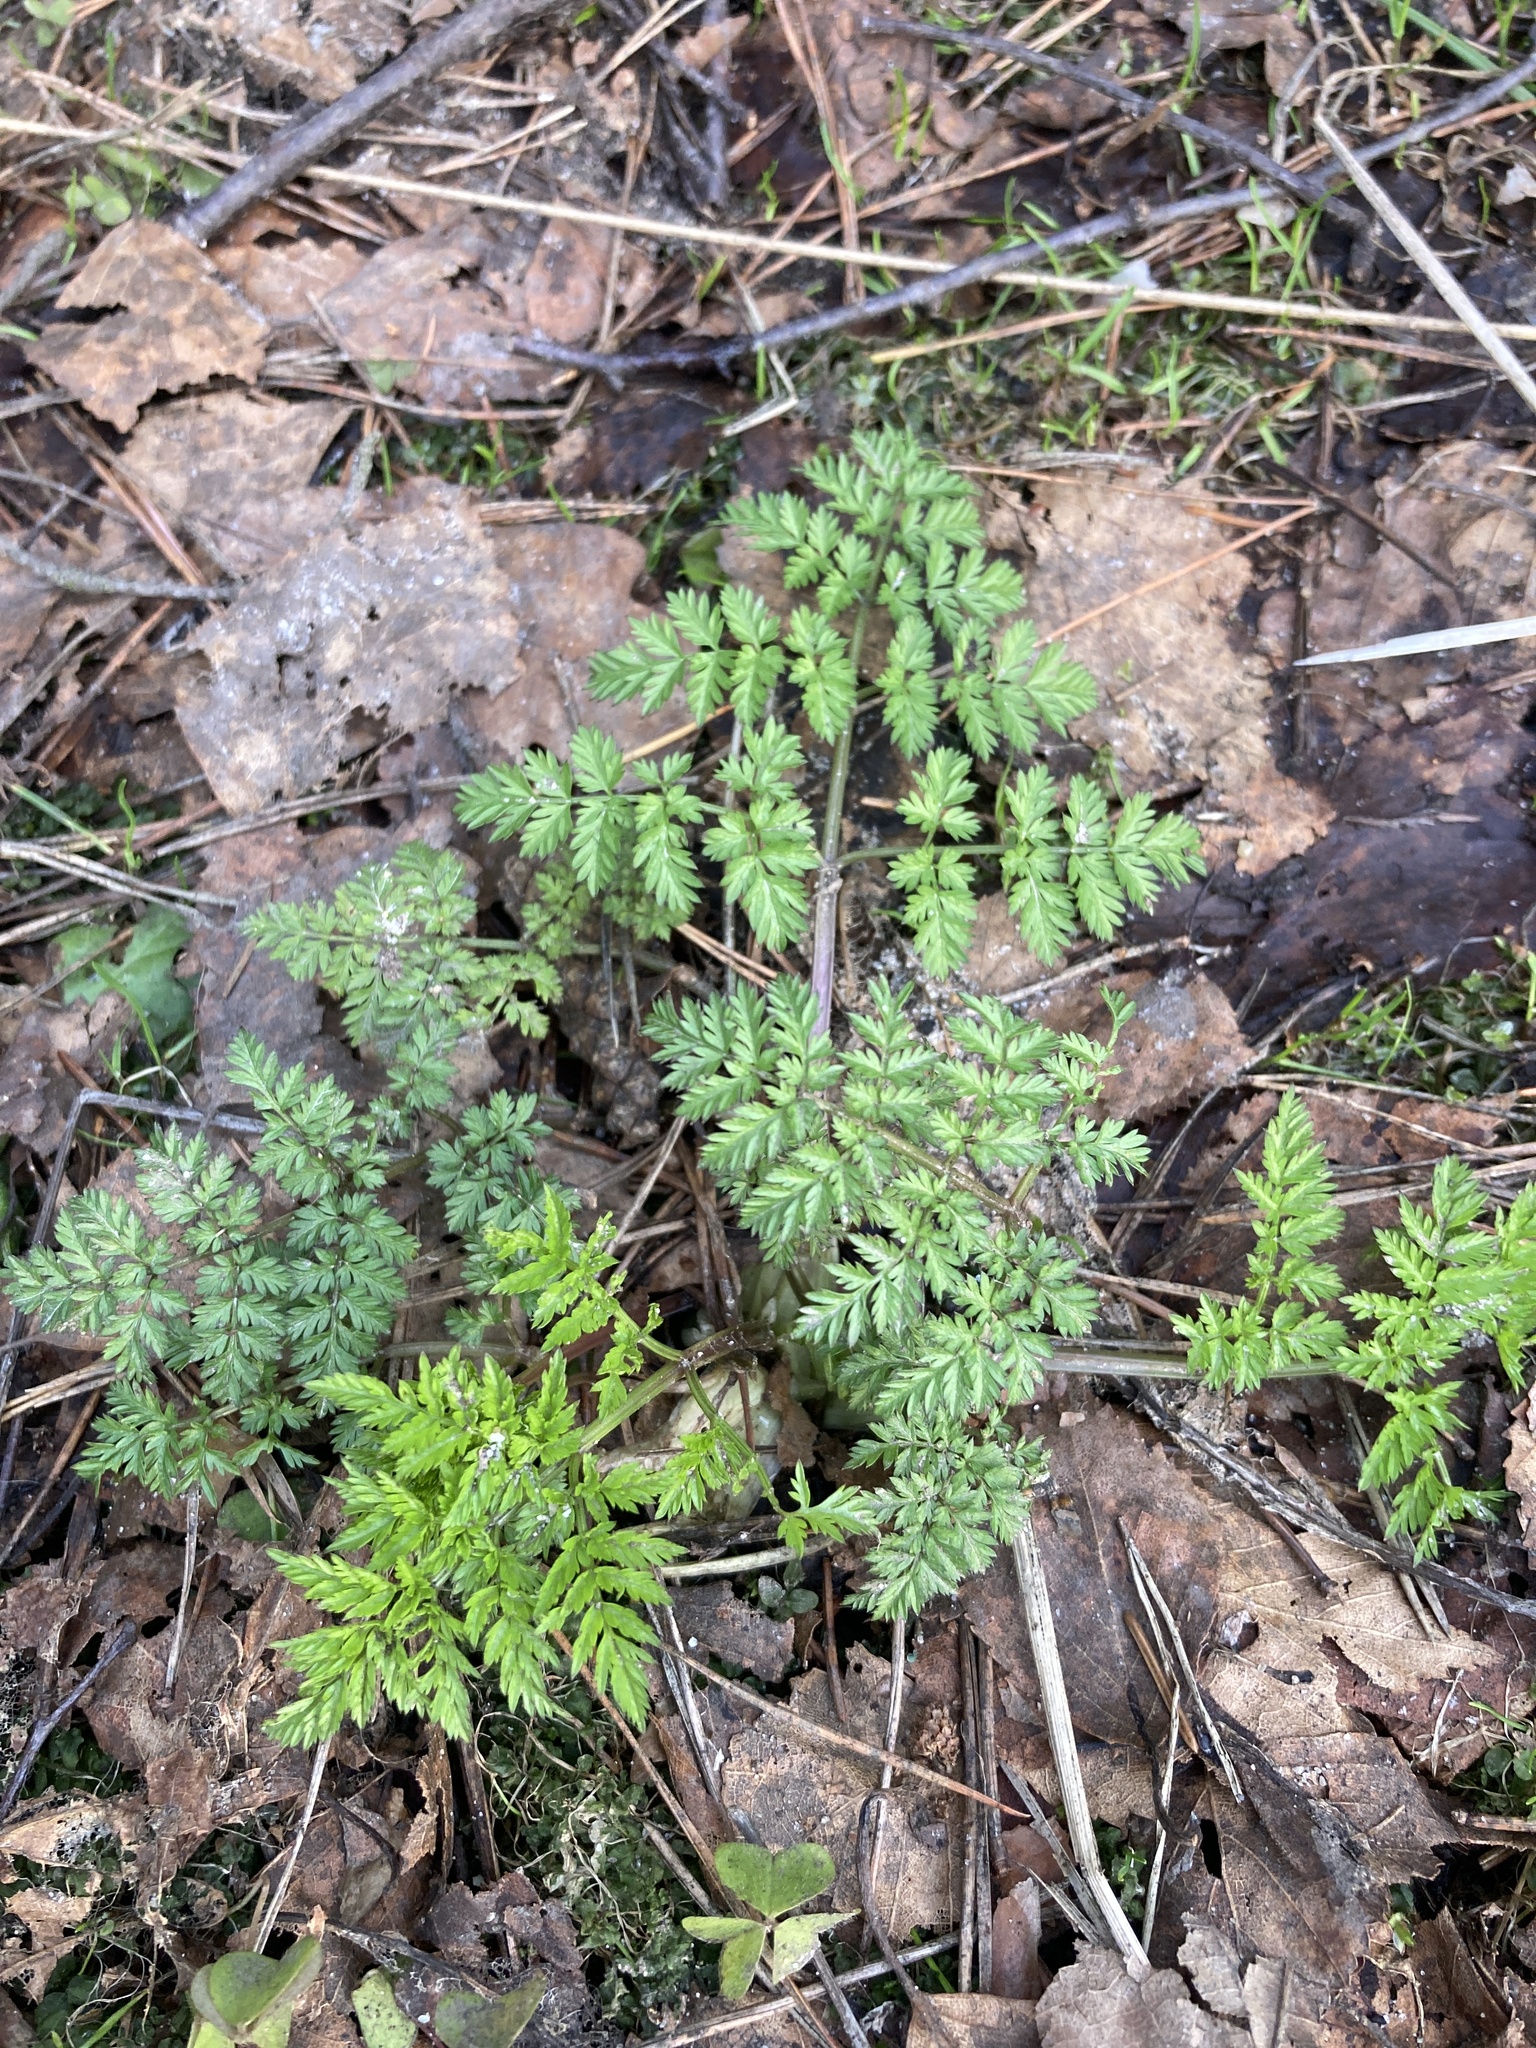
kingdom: Plantae
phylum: Tracheophyta
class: Magnoliopsida
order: Apiales
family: Apiaceae
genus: Anthriscus
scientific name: Anthriscus sylvestris
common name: Cow parsley
